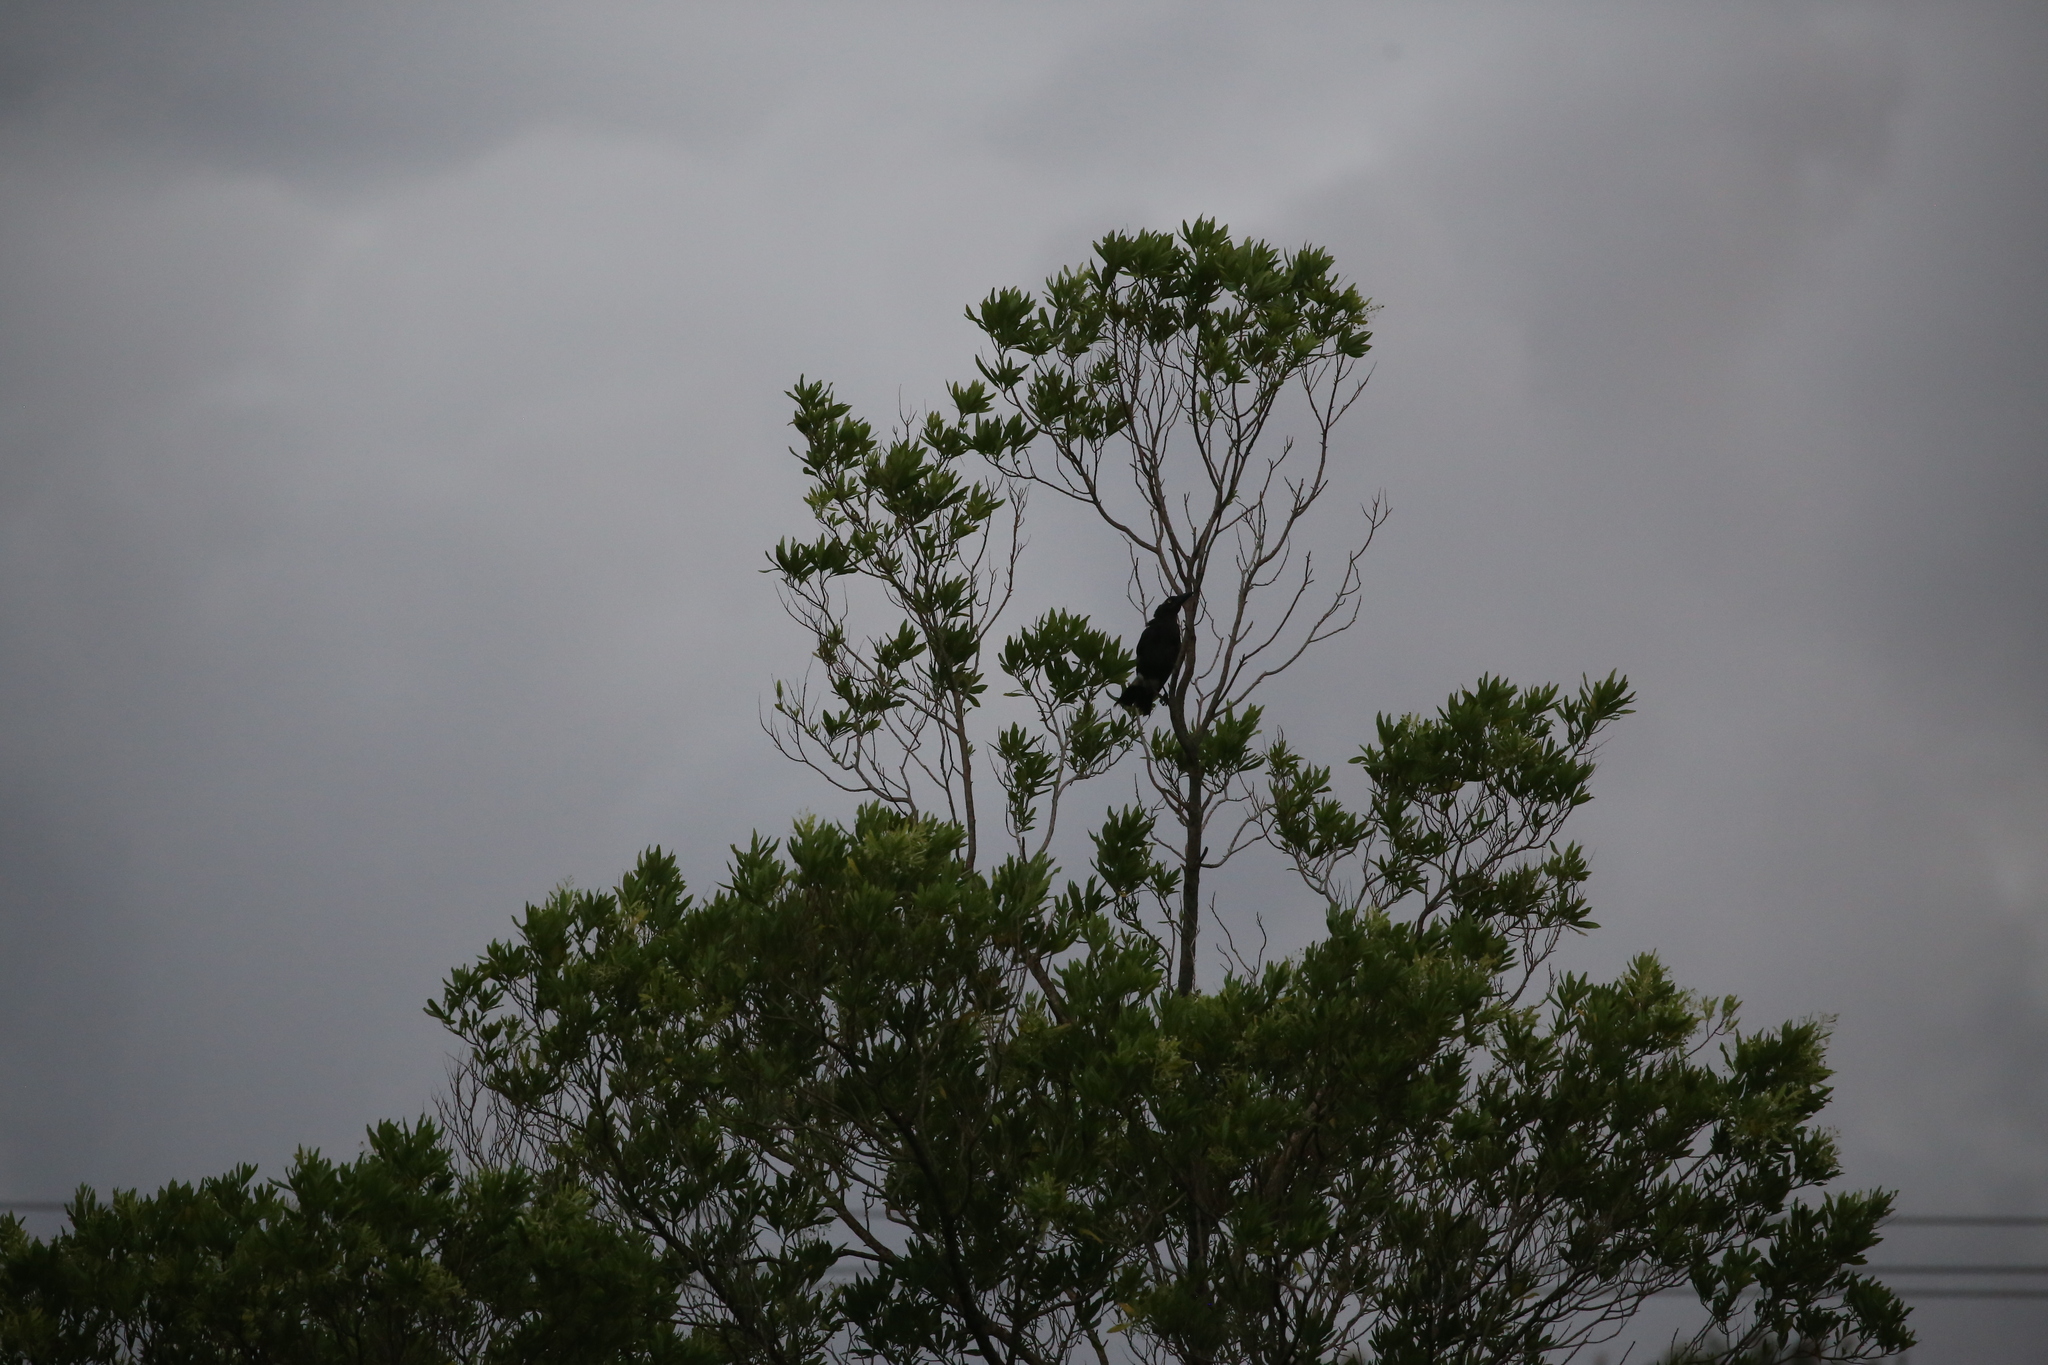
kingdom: Animalia
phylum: Chordata
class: Aves
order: Passeriformes
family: Cracticidae
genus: Strepera
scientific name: Strepera graculina
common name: Pied currawong
